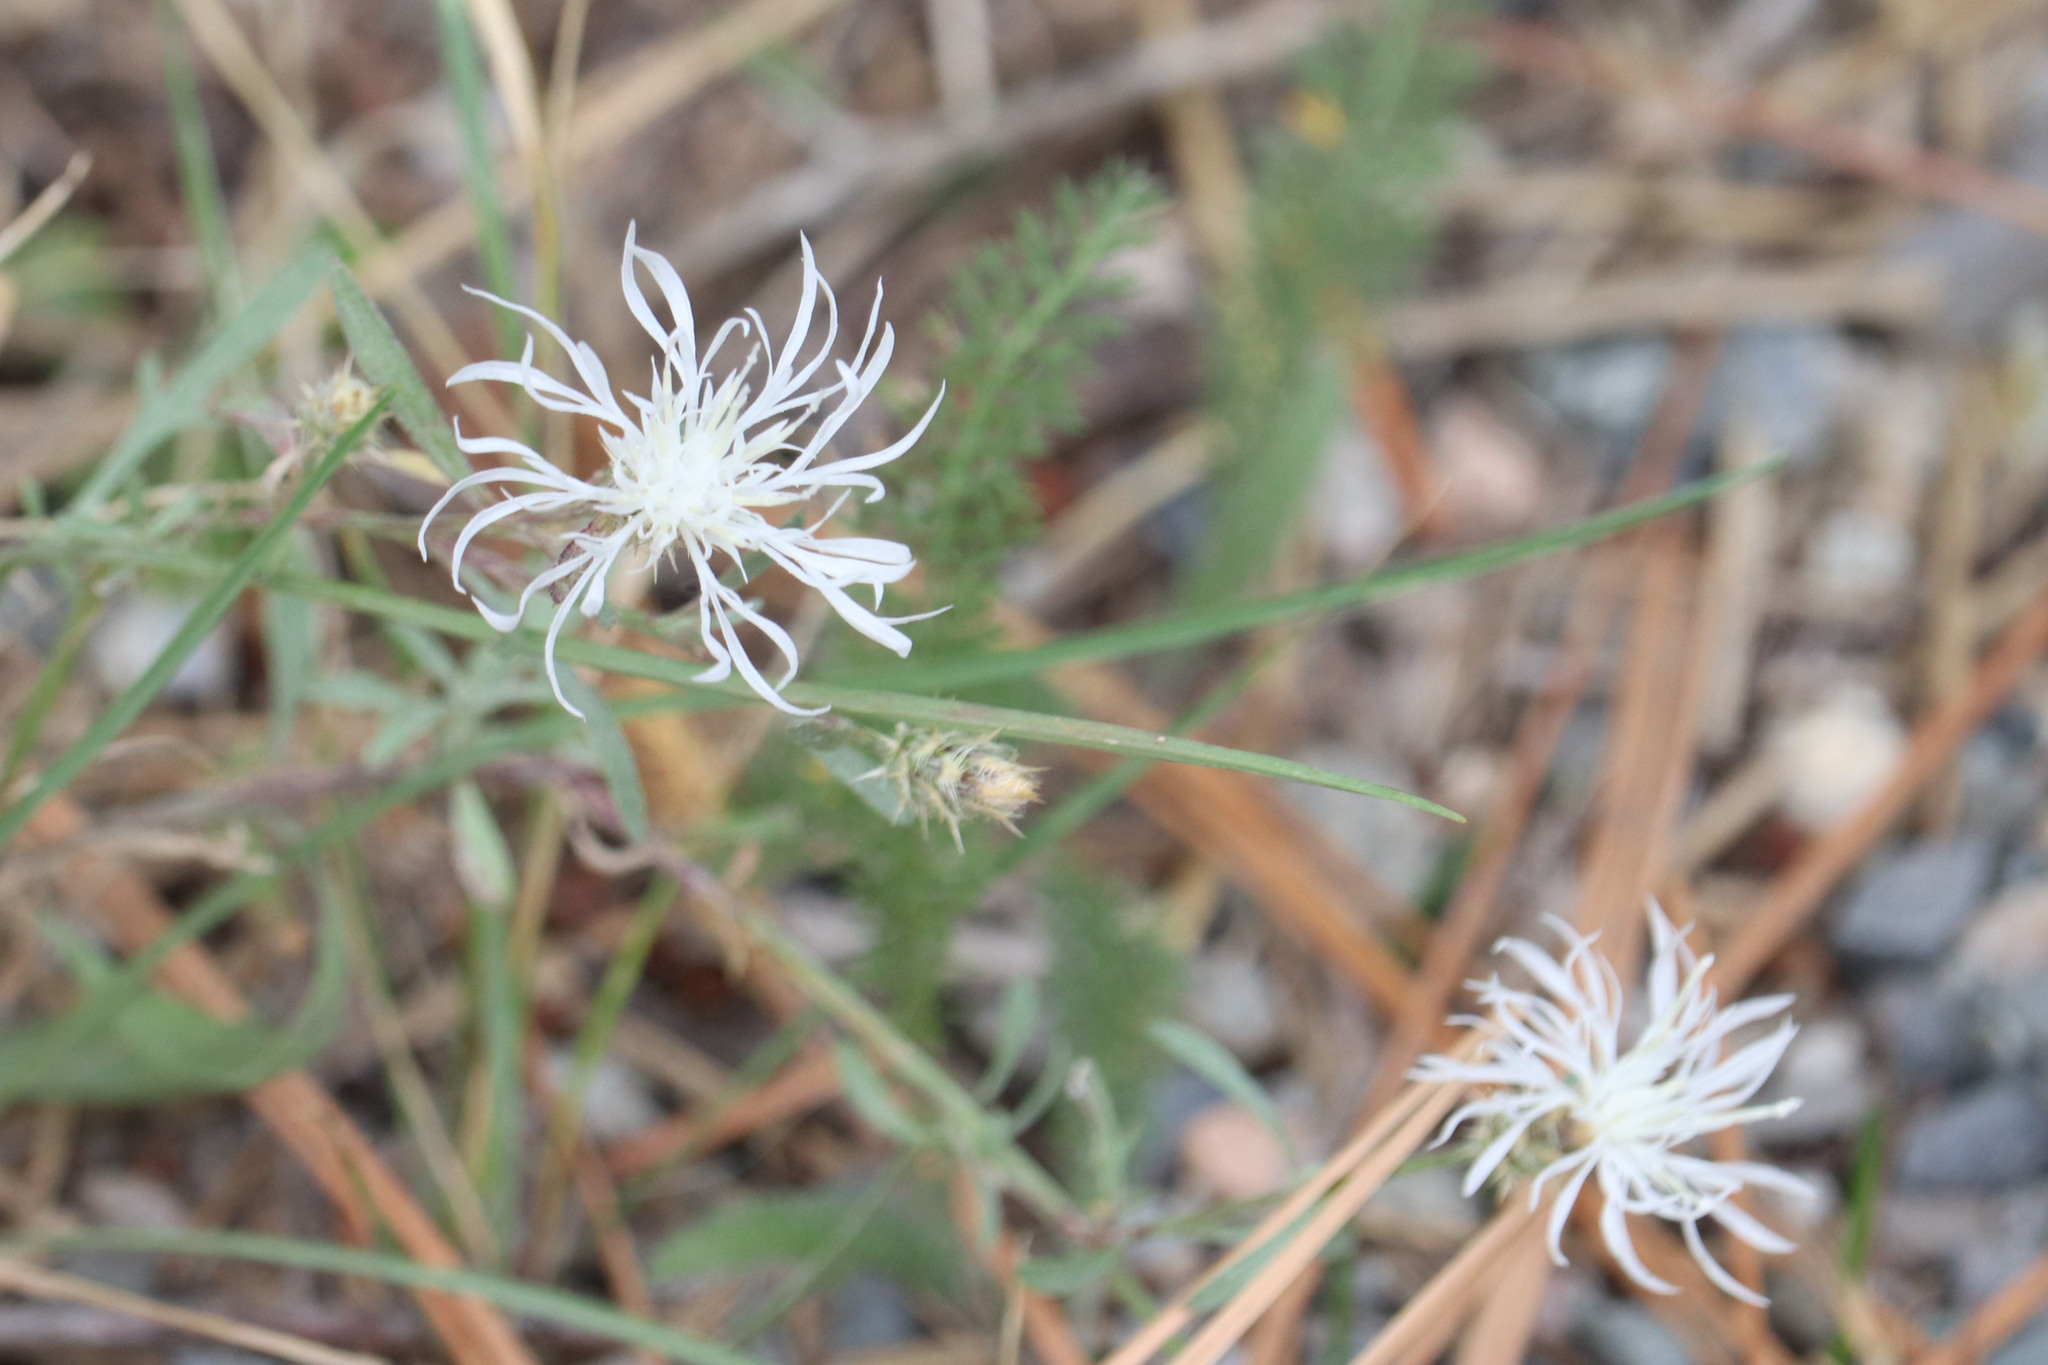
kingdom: Plantae
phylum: Tracheophyta
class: Magnoliopsida
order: Asterales
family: Asteraceae
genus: Centaurea
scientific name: Centaurea diffusa
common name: Diffuse knapweed
